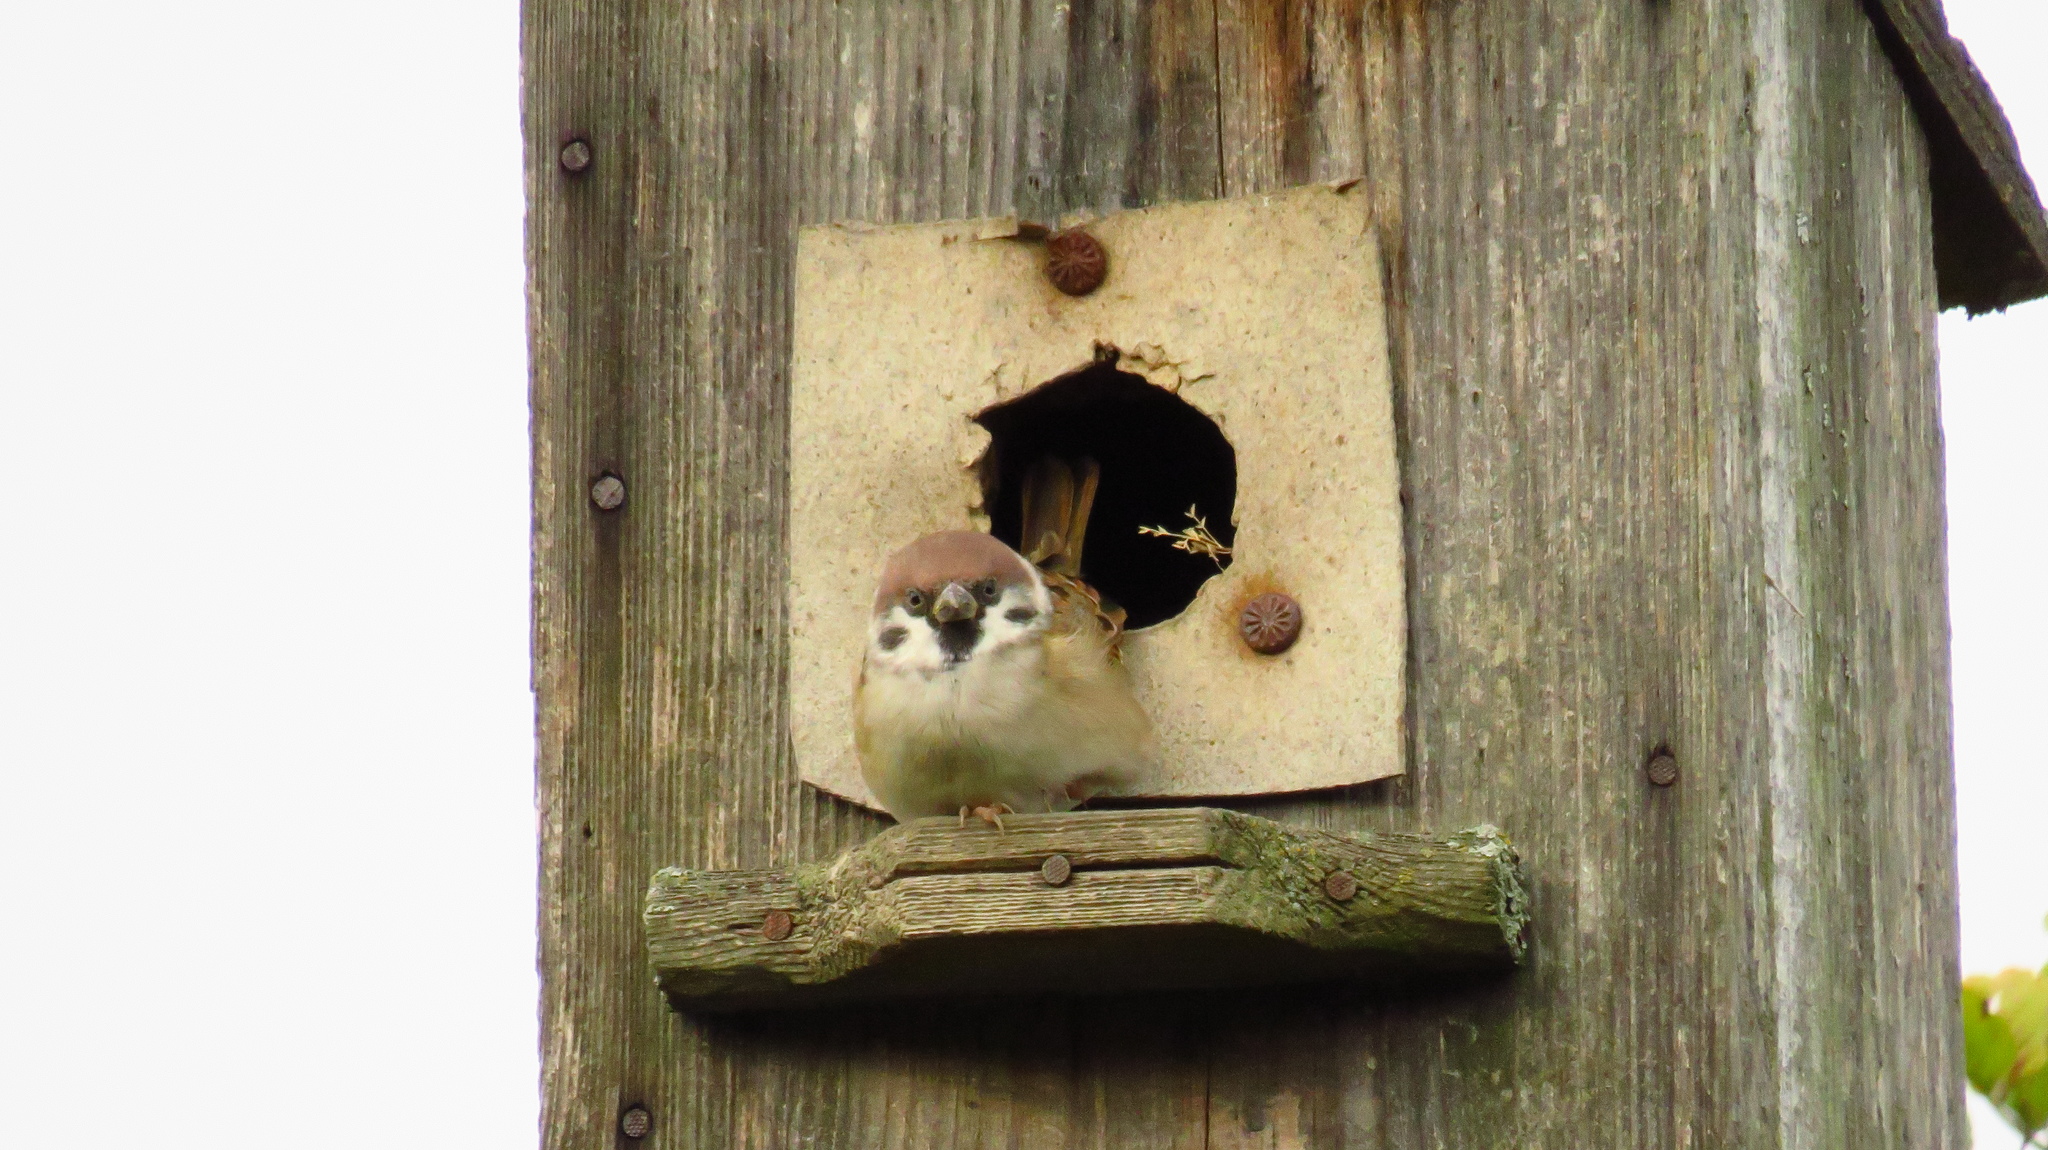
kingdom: Animalia
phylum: Chordata
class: Aves
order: Passeriformes
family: Passeridae
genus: Passer
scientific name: Passer montanus
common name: Eurasian tree sparrow
